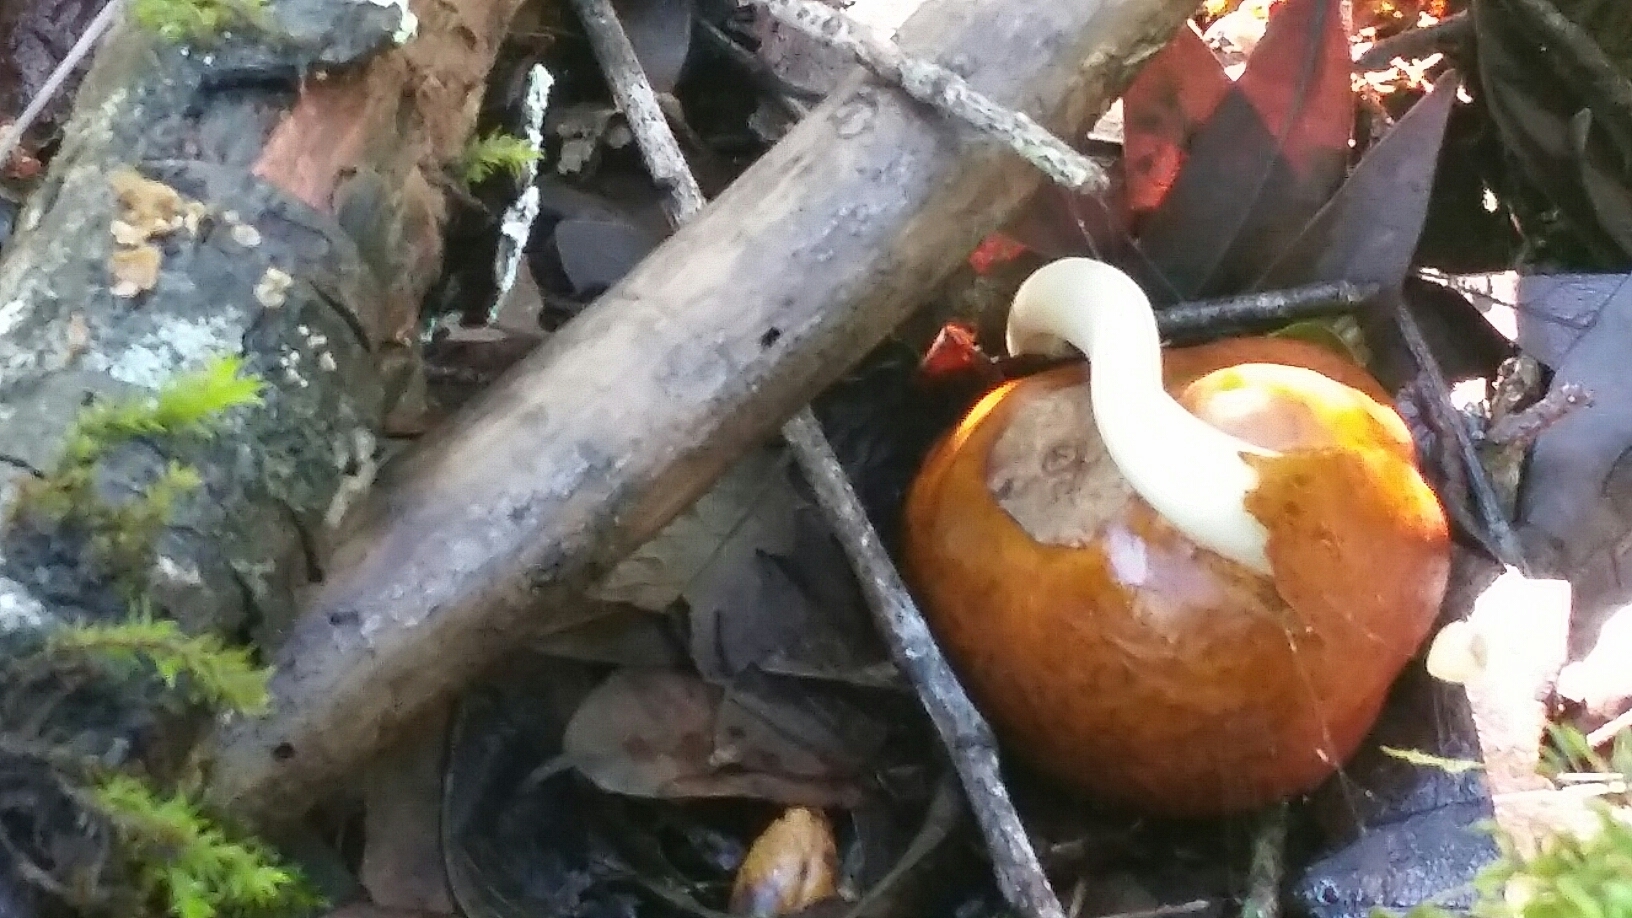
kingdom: Plantae
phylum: Tracheophyta
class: Magnoliopsida
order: Sapindales
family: Sapindaceae
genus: Aesculus
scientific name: Aesculus californica
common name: California buckeye
